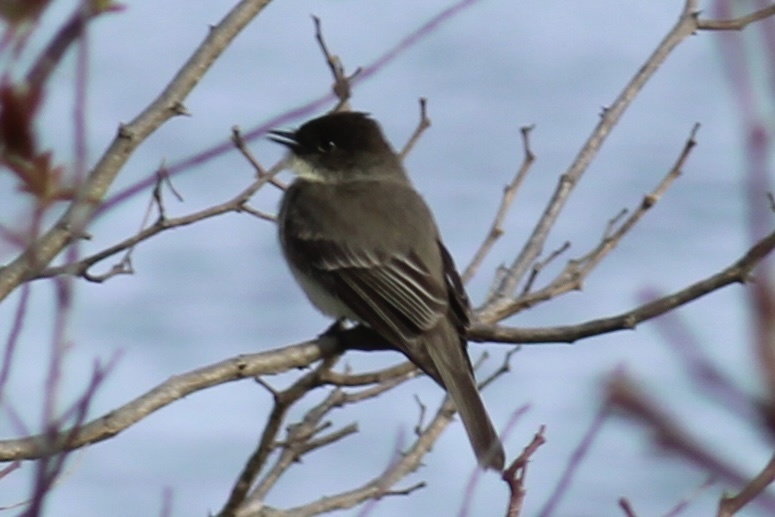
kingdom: Animalia
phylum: Chordata
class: Aves
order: Passeriformes
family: Tyrannidae
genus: Sayornis
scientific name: Sayornis phoebe
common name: Eastern phoebe
